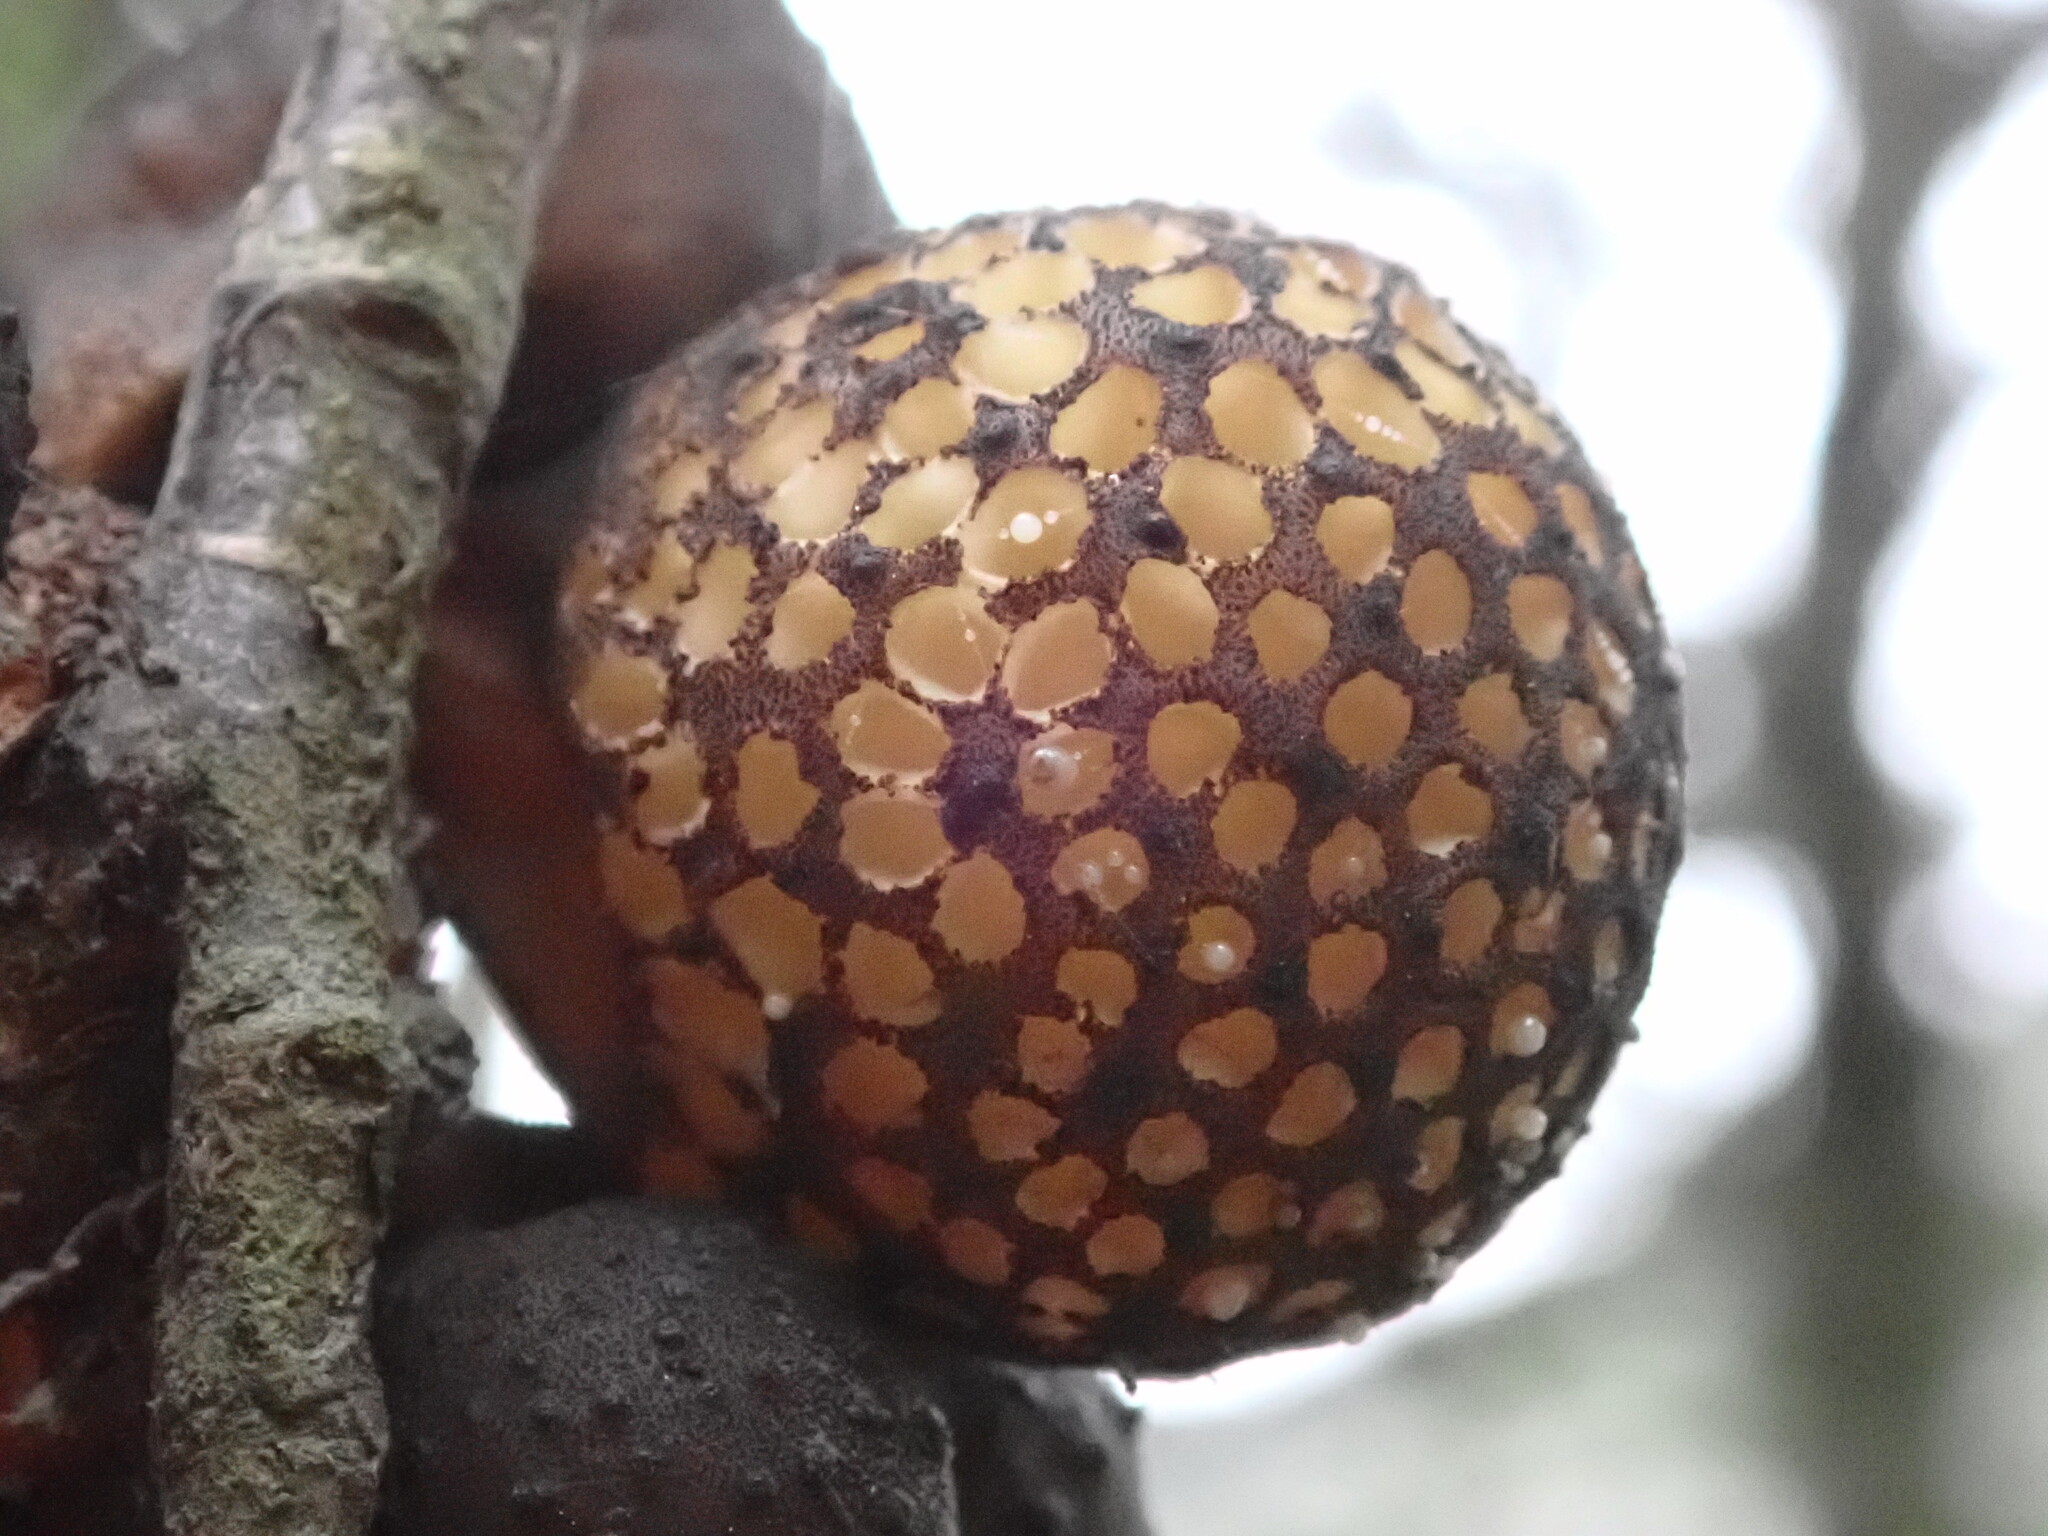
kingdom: Fungi
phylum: Ascomycota
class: Leotiomycetes
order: Cyttariales
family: Cyttariaceae
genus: Cyttaria
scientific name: Cyttaria nigra
